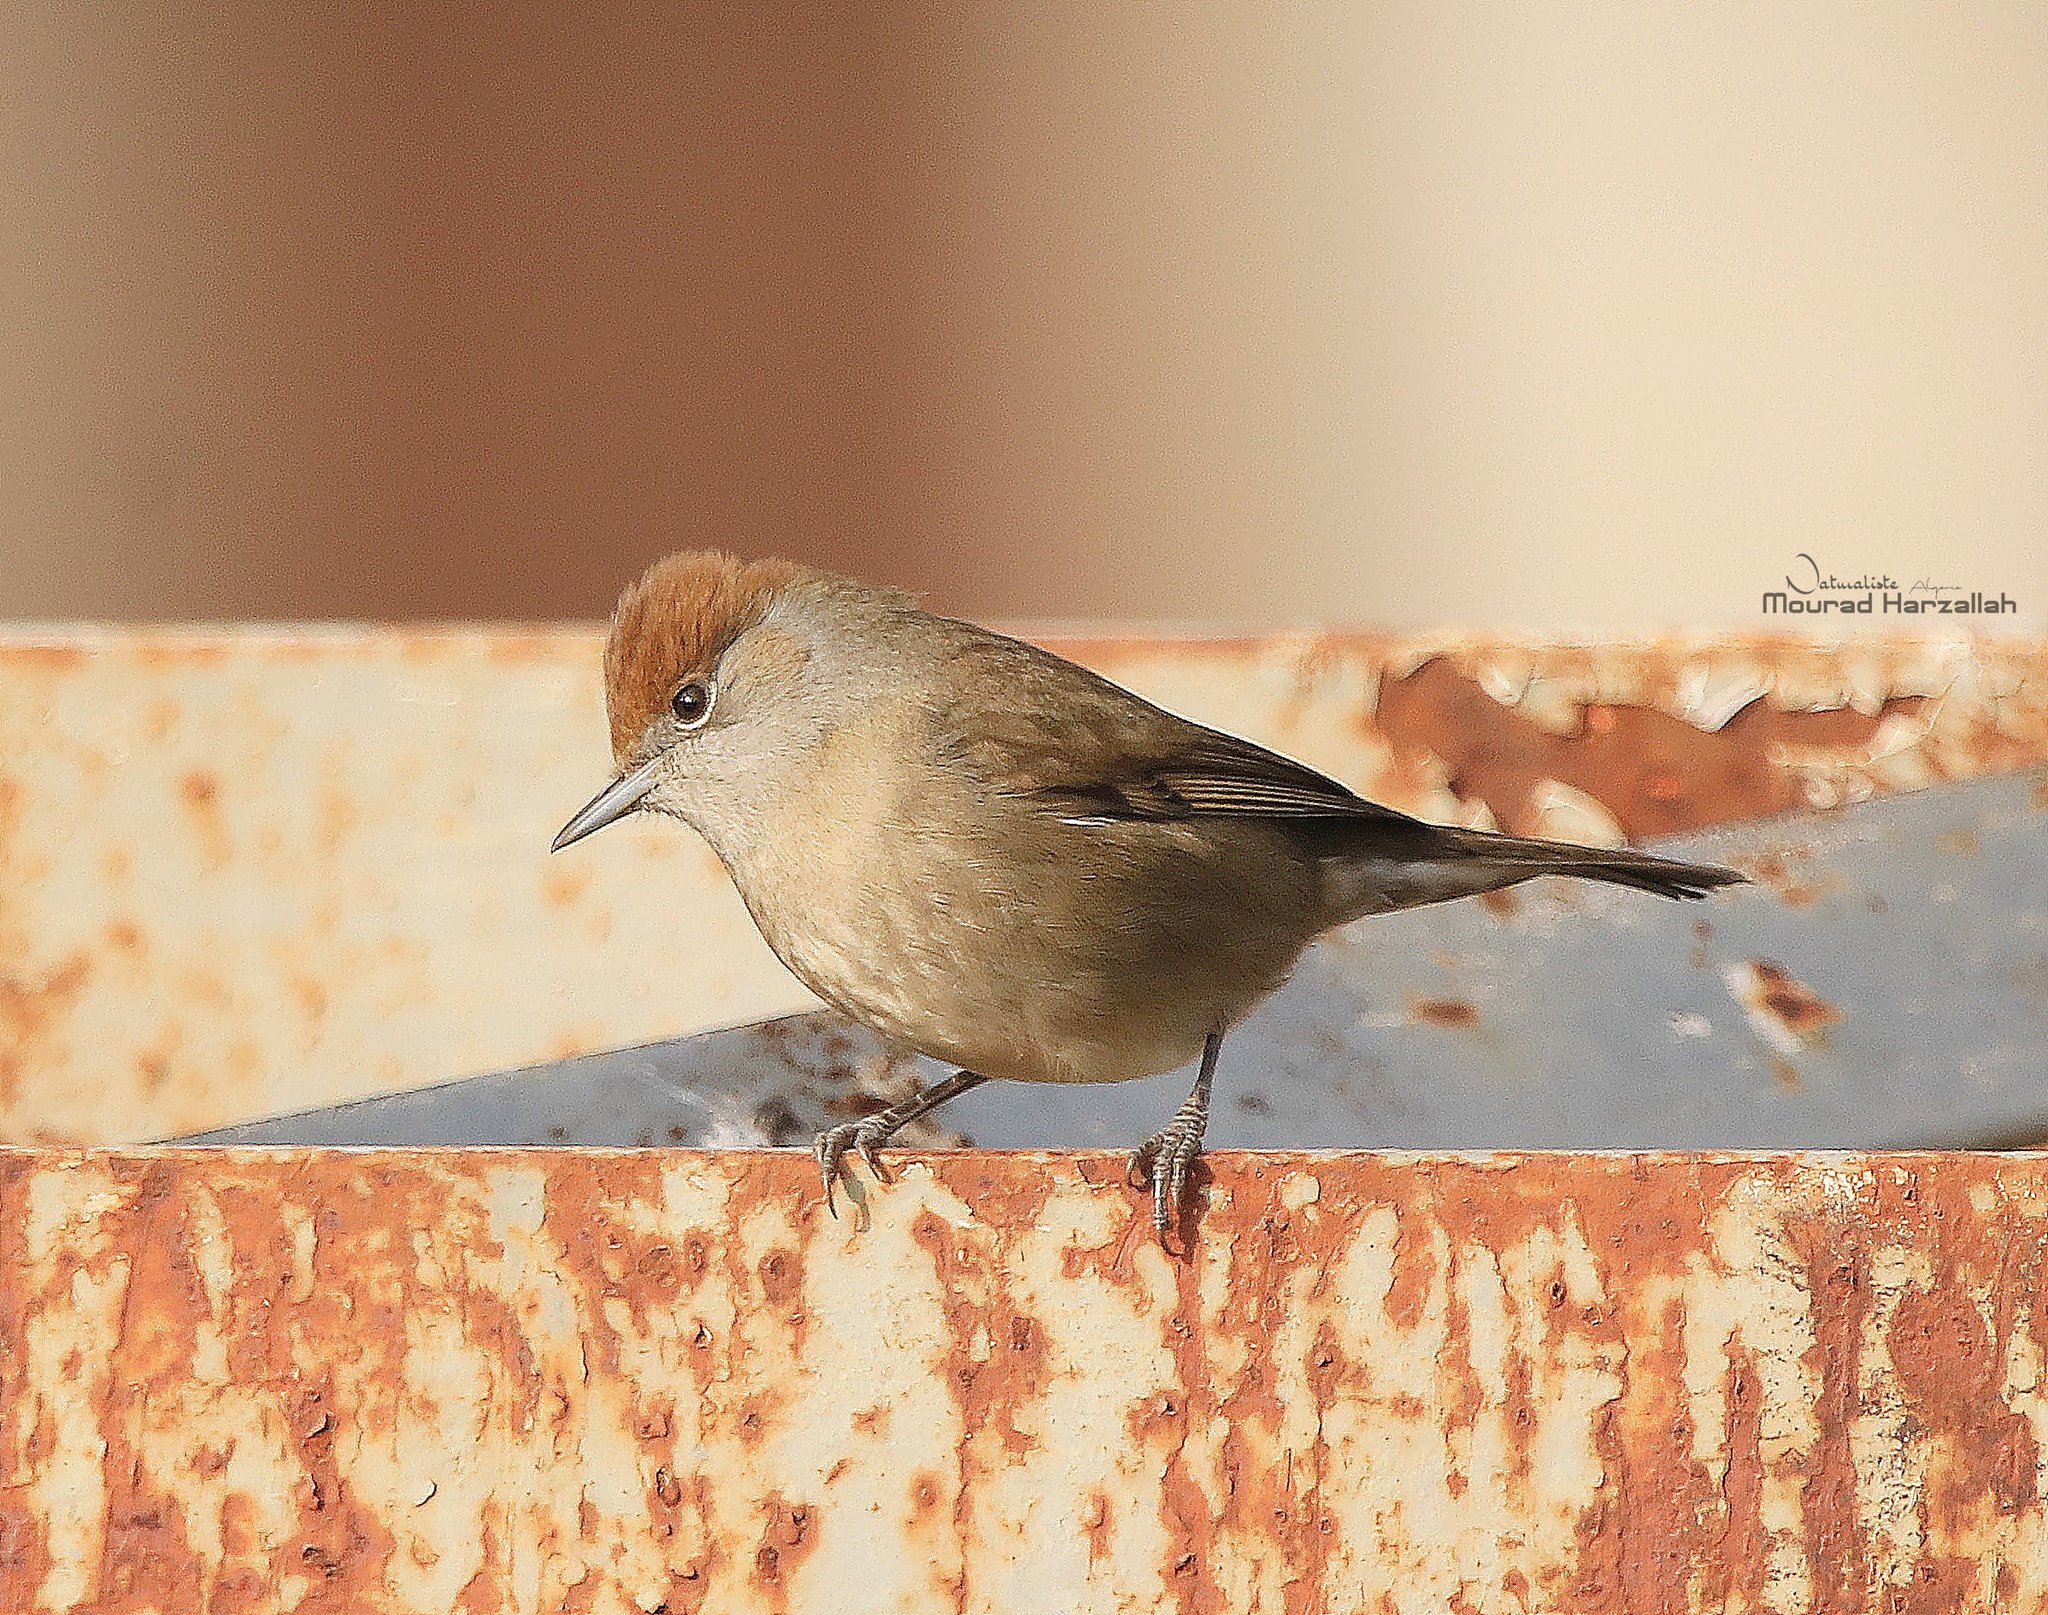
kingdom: Animalia
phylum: Chordata
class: Aves
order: Passeriformes
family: Sylviidae
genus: Sylvia
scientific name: Sylvia atricapilla
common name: Eurasian blackcap
